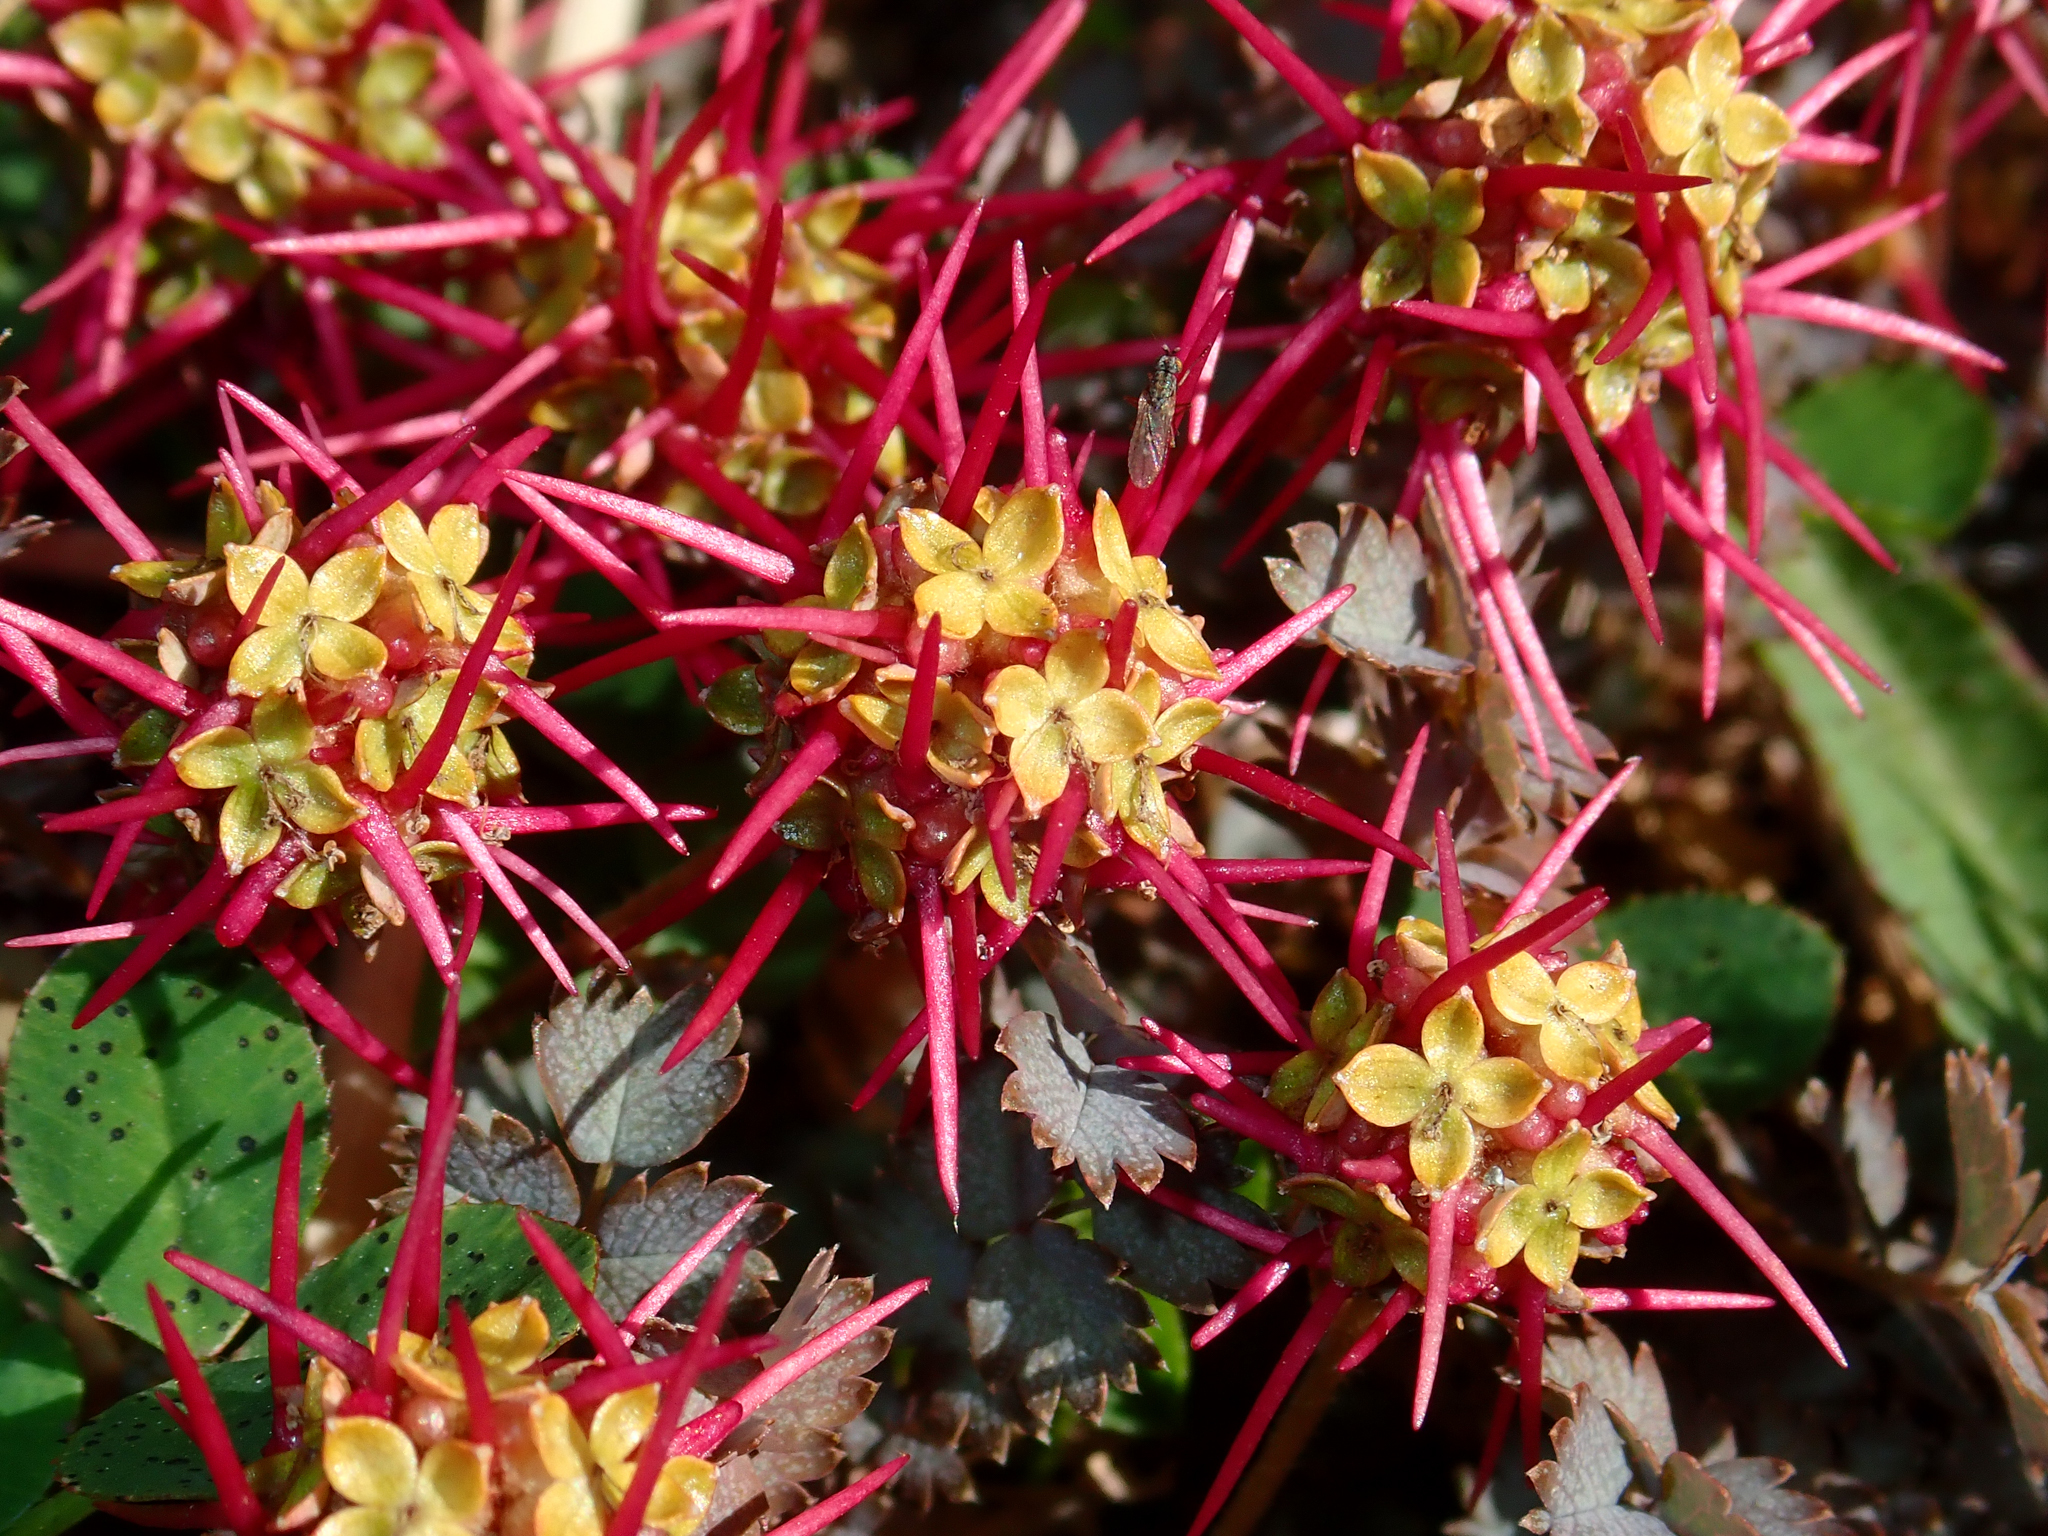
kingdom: Plantae
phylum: Tracheophyta
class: Magnoliopsida
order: Rosales
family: Rosaceae
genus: Acaena
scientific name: Acaena inermis
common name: Spineless acaena
